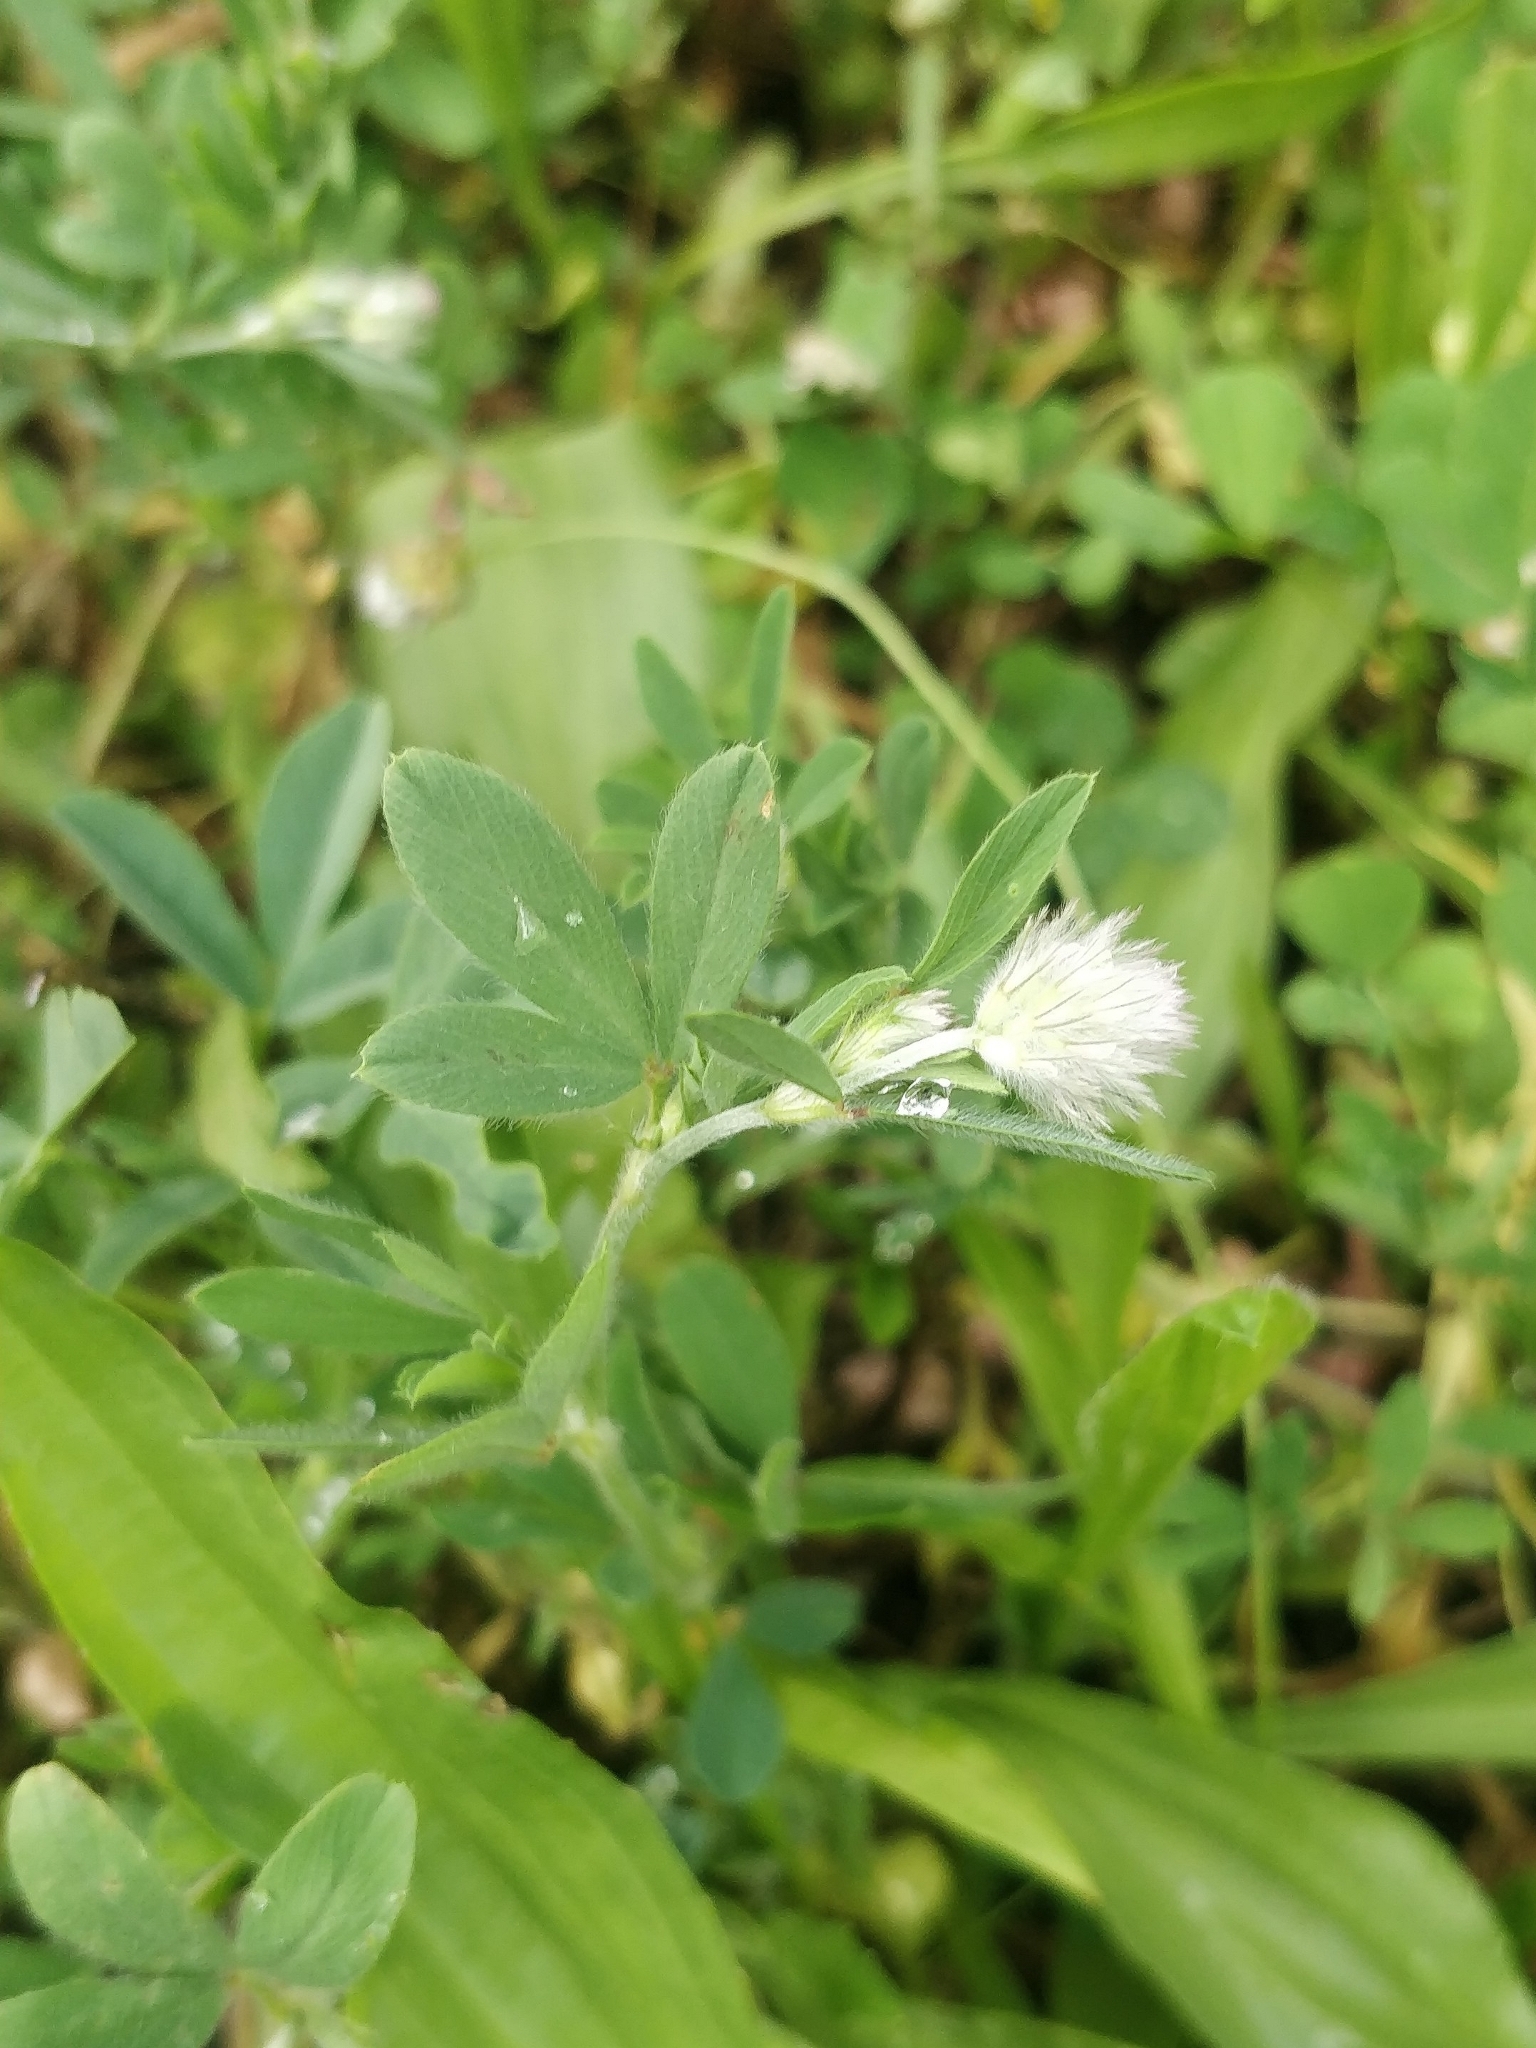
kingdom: Plantae
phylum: Tracheophyta
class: Magnoliopsida
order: Fabales
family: Fabaceae
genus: Trifolium
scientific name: Trifolium arvense
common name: Hare's-foot clover
